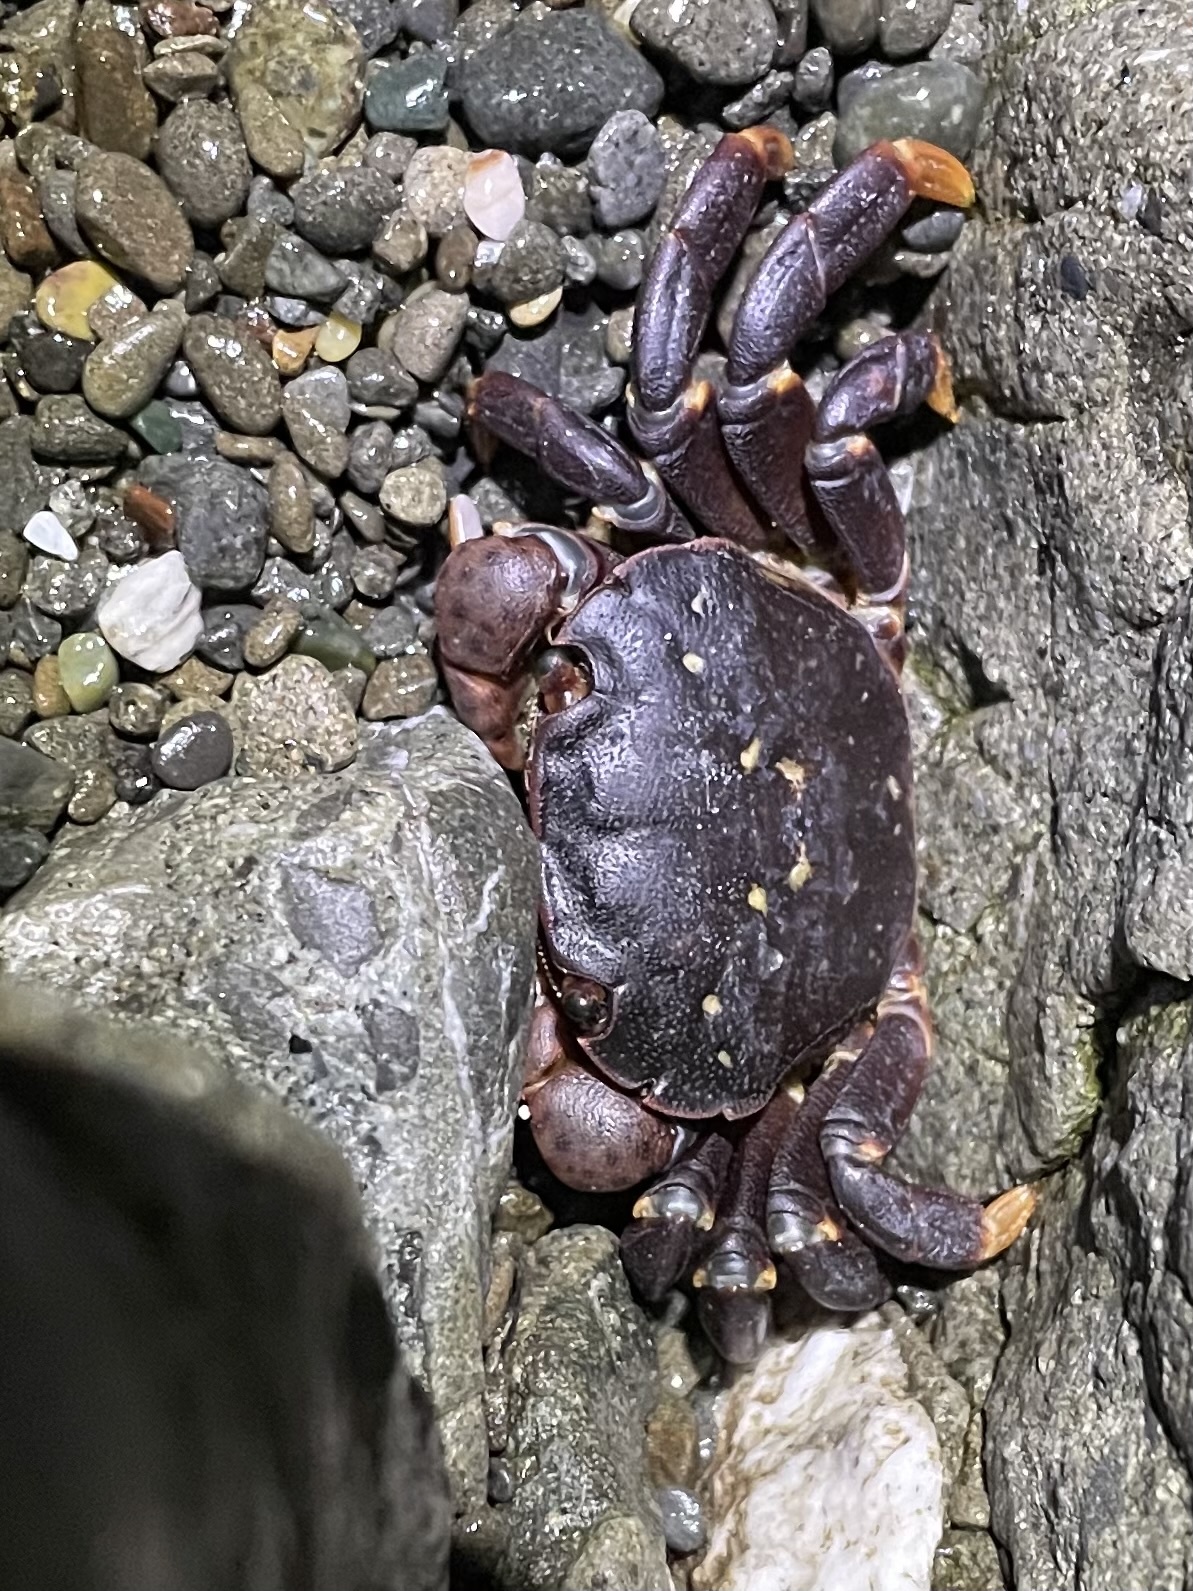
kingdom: Animalia
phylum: Arthropoda
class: Malacostraca
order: Decapoda
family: Varunidae
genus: Hemigrapsus
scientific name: Hemigrapsus nudus
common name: Purple shore crab
